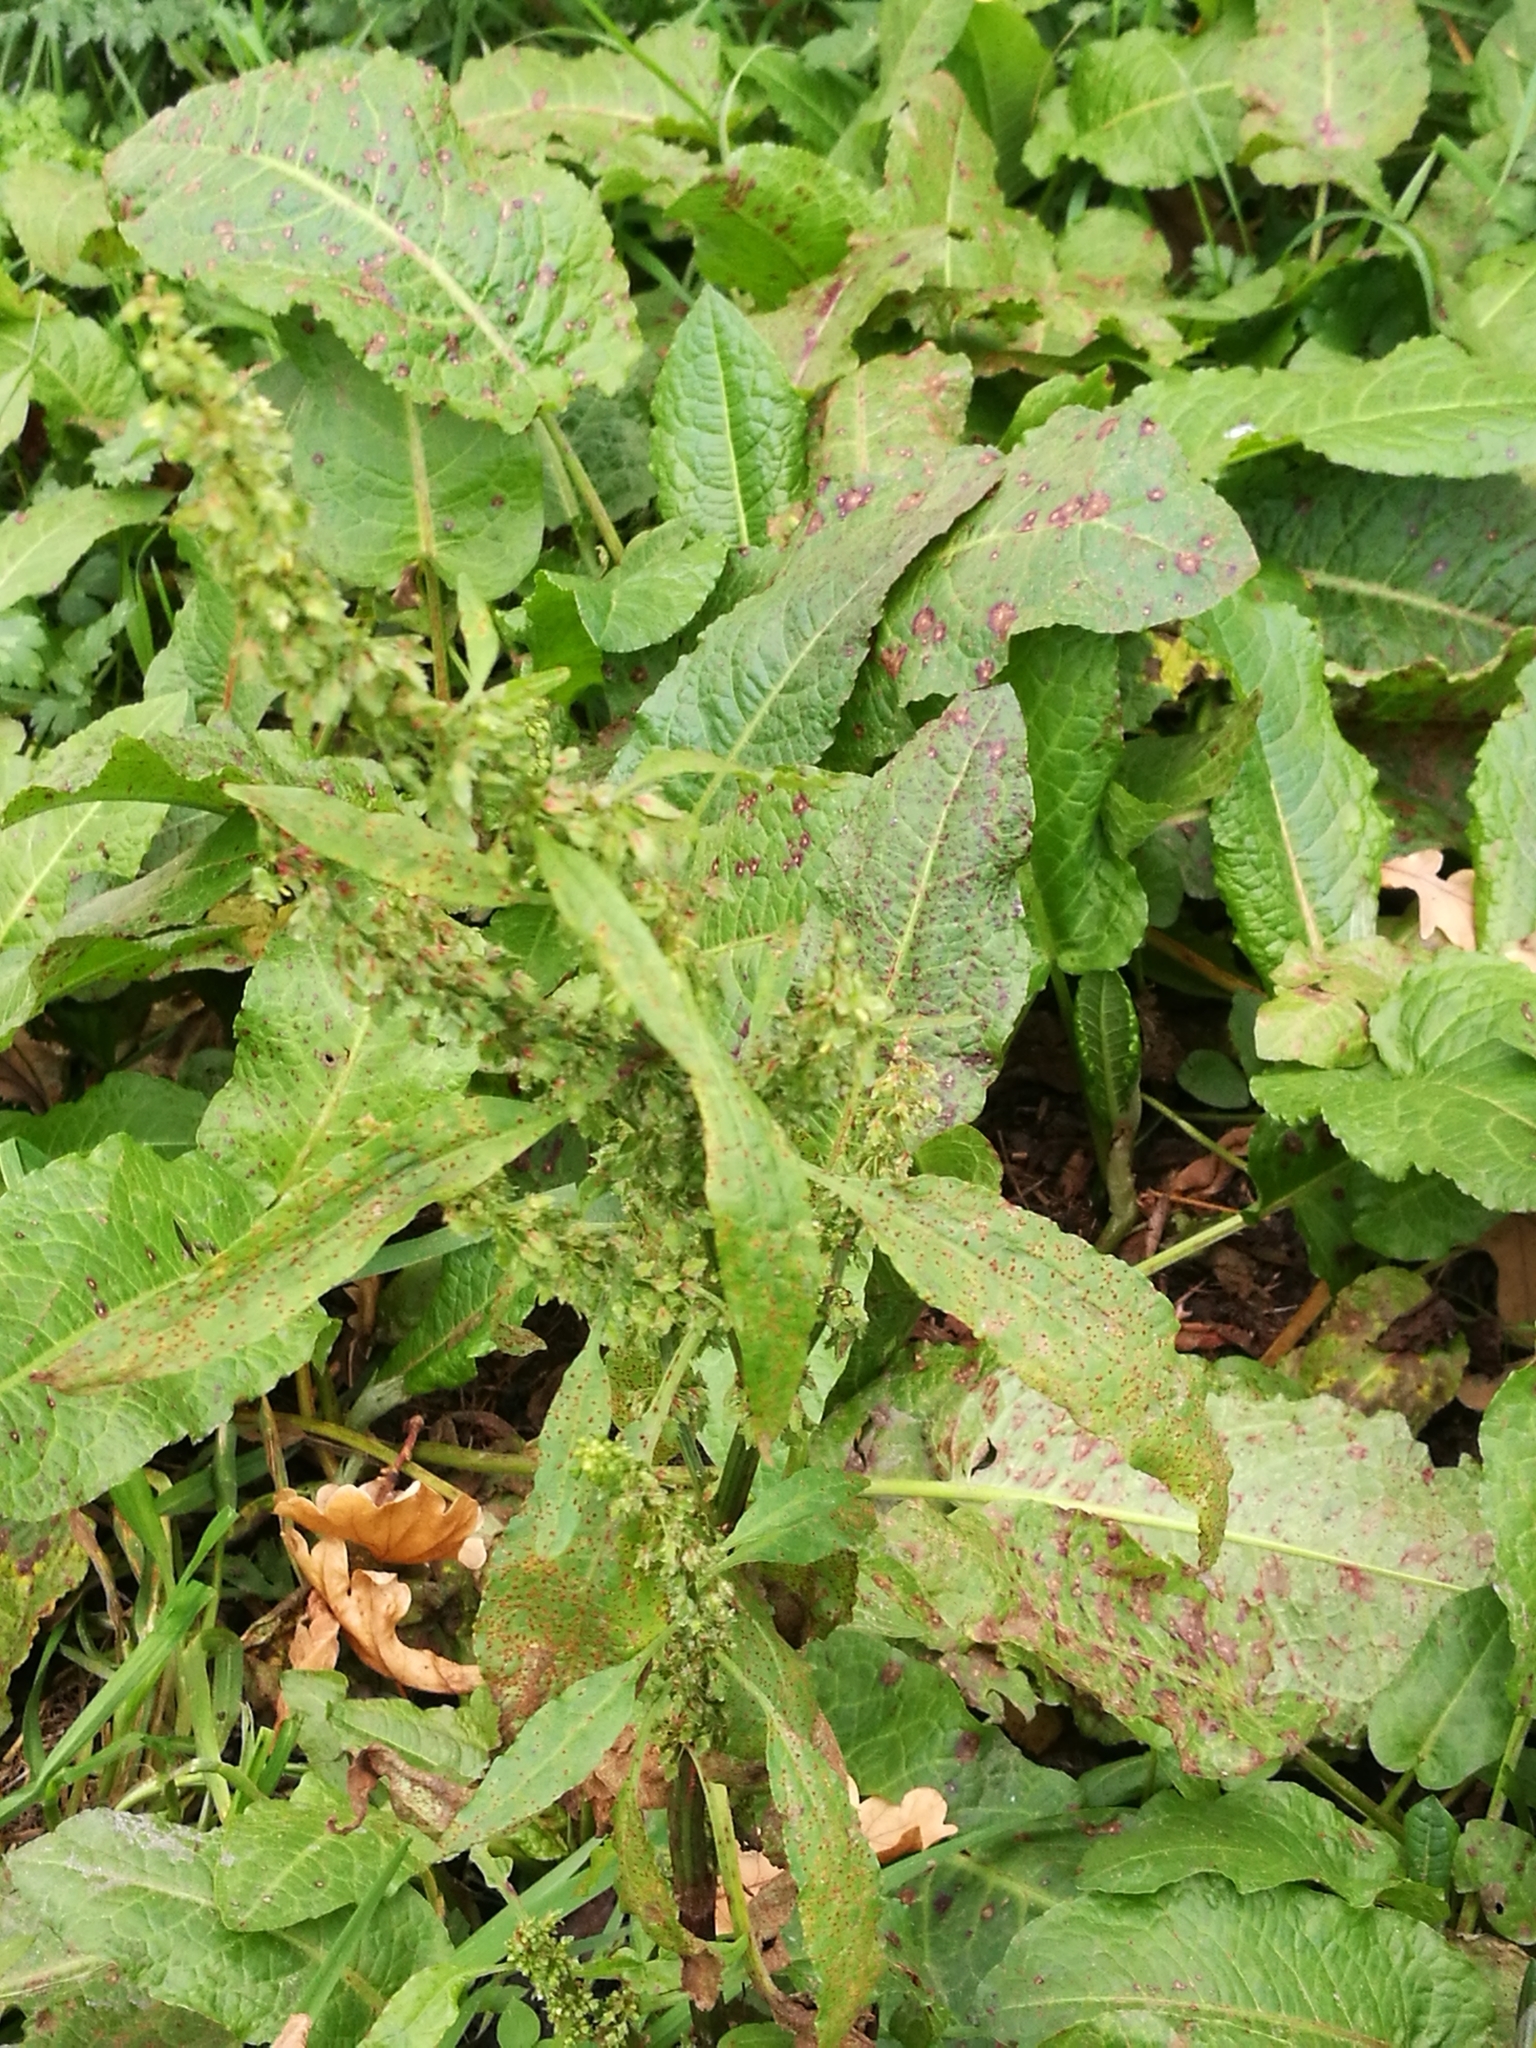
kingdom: Plantae
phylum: Tracheophyta
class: Magnoliopsida
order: Caryophyllales
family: Polygonaceae
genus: Rumex
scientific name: Rumex obtusifolius
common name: Bitter dock
